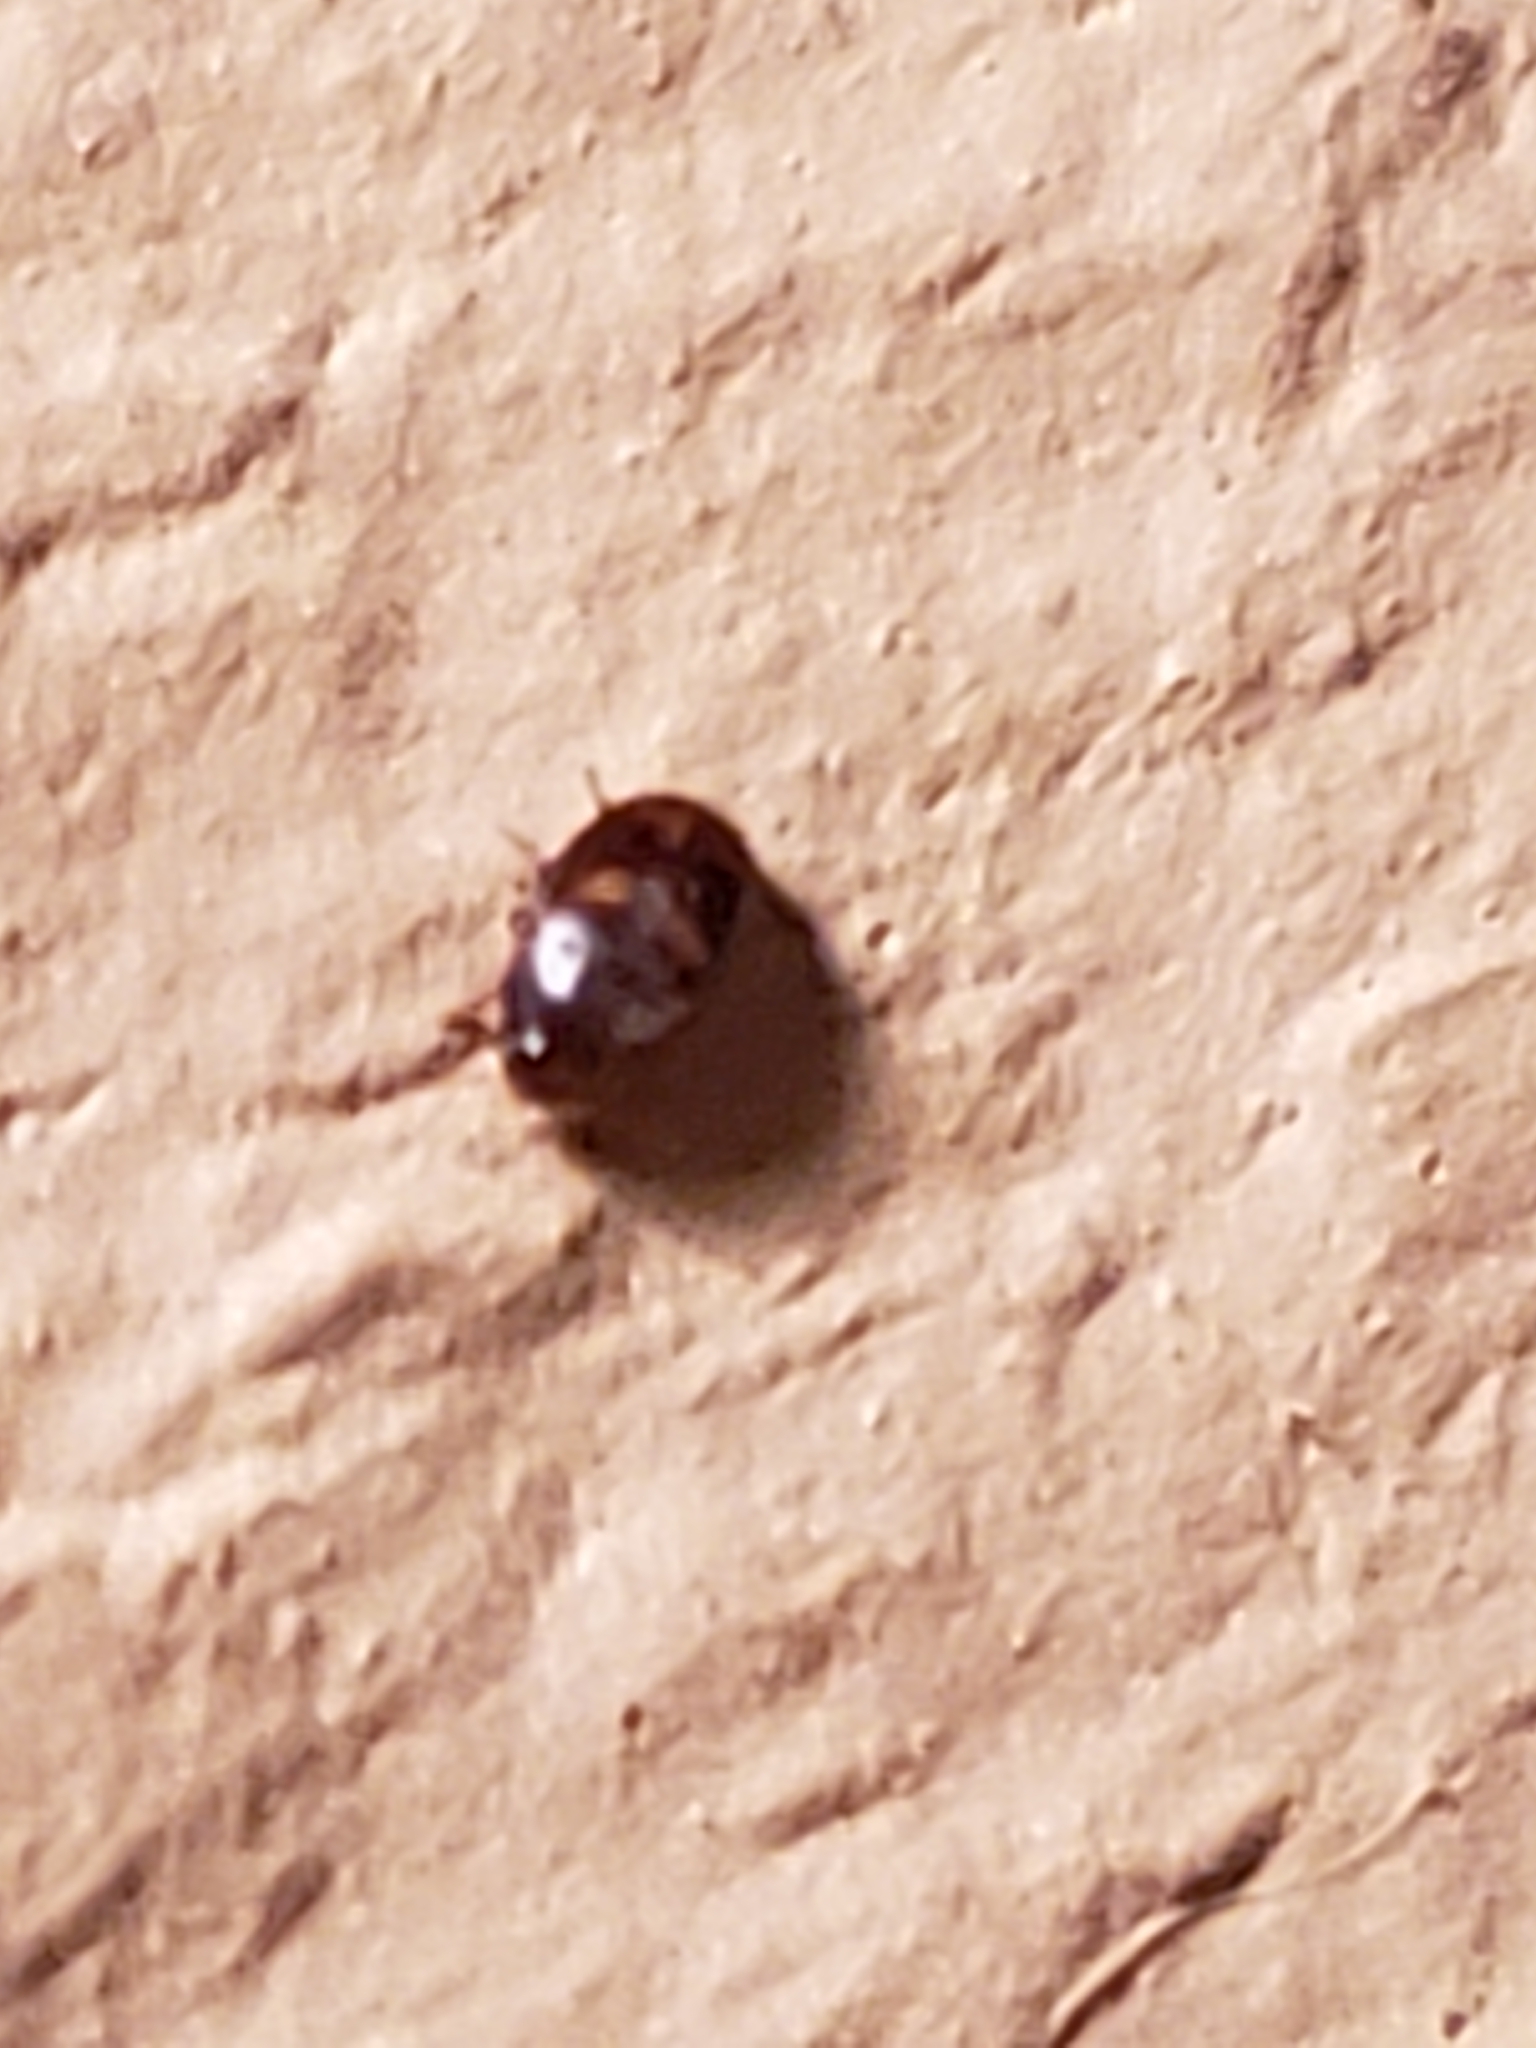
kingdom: Animalia
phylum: Arthropoda
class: Insecta
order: Coleoptera
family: Mycetophagidae
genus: Litargus
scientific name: Litargus tetraspilotus
